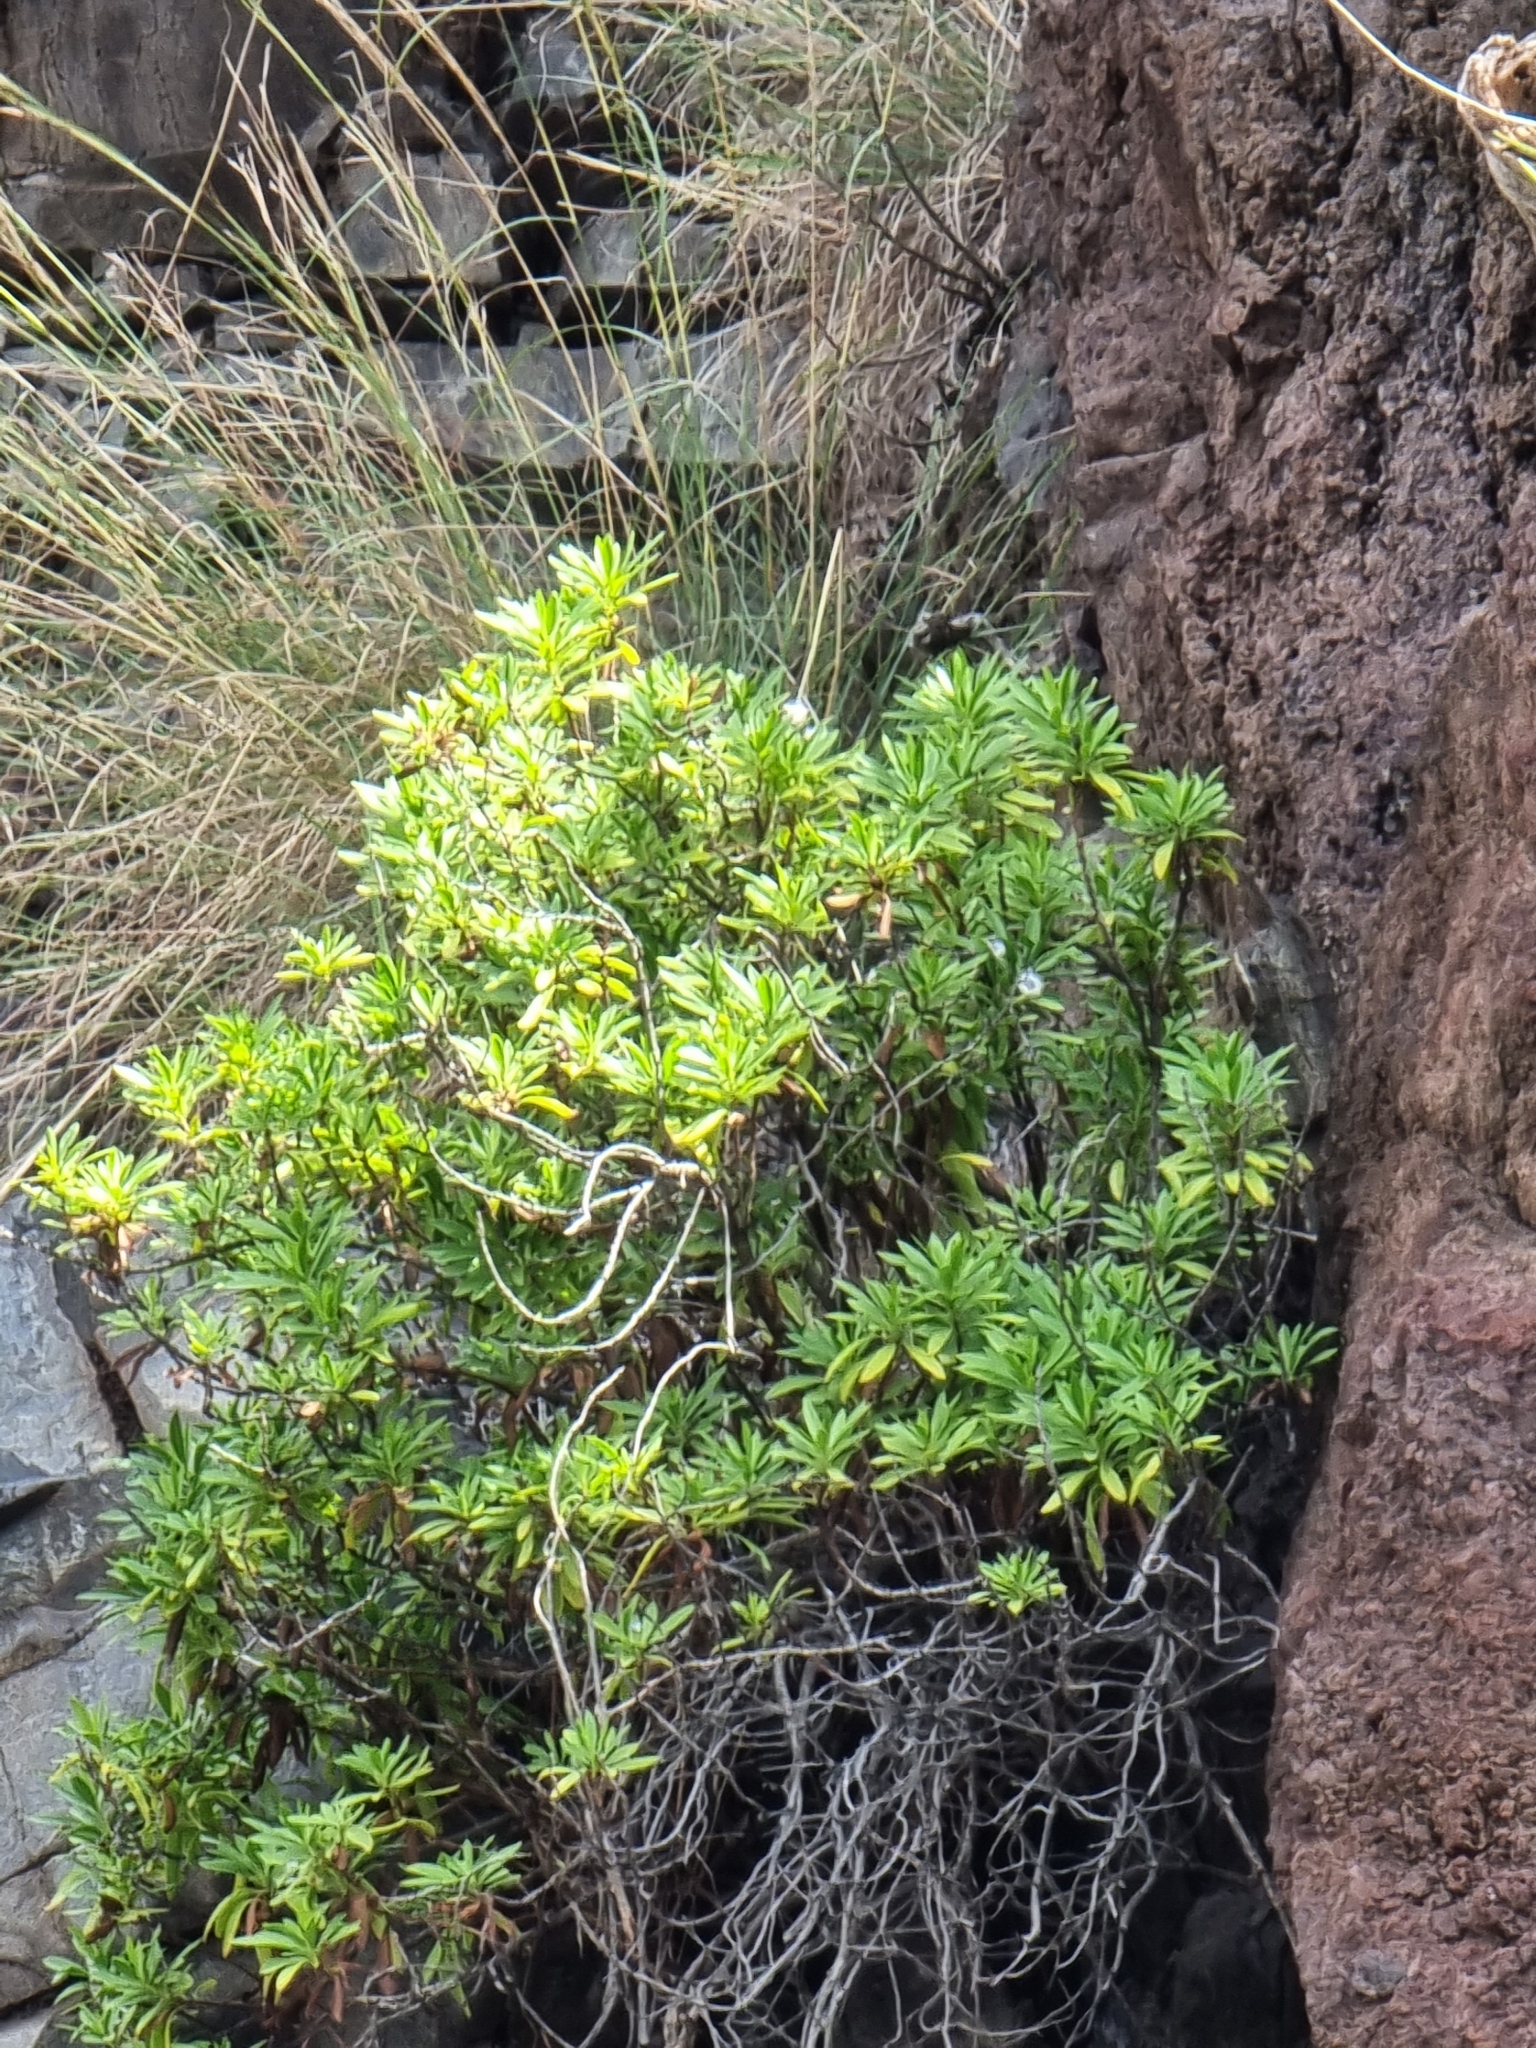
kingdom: Plantae
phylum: Tracheophyta
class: Magnoliopsida
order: Lamiales
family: Plantaginaceae
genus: Globularia
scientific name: Globularia salicina
